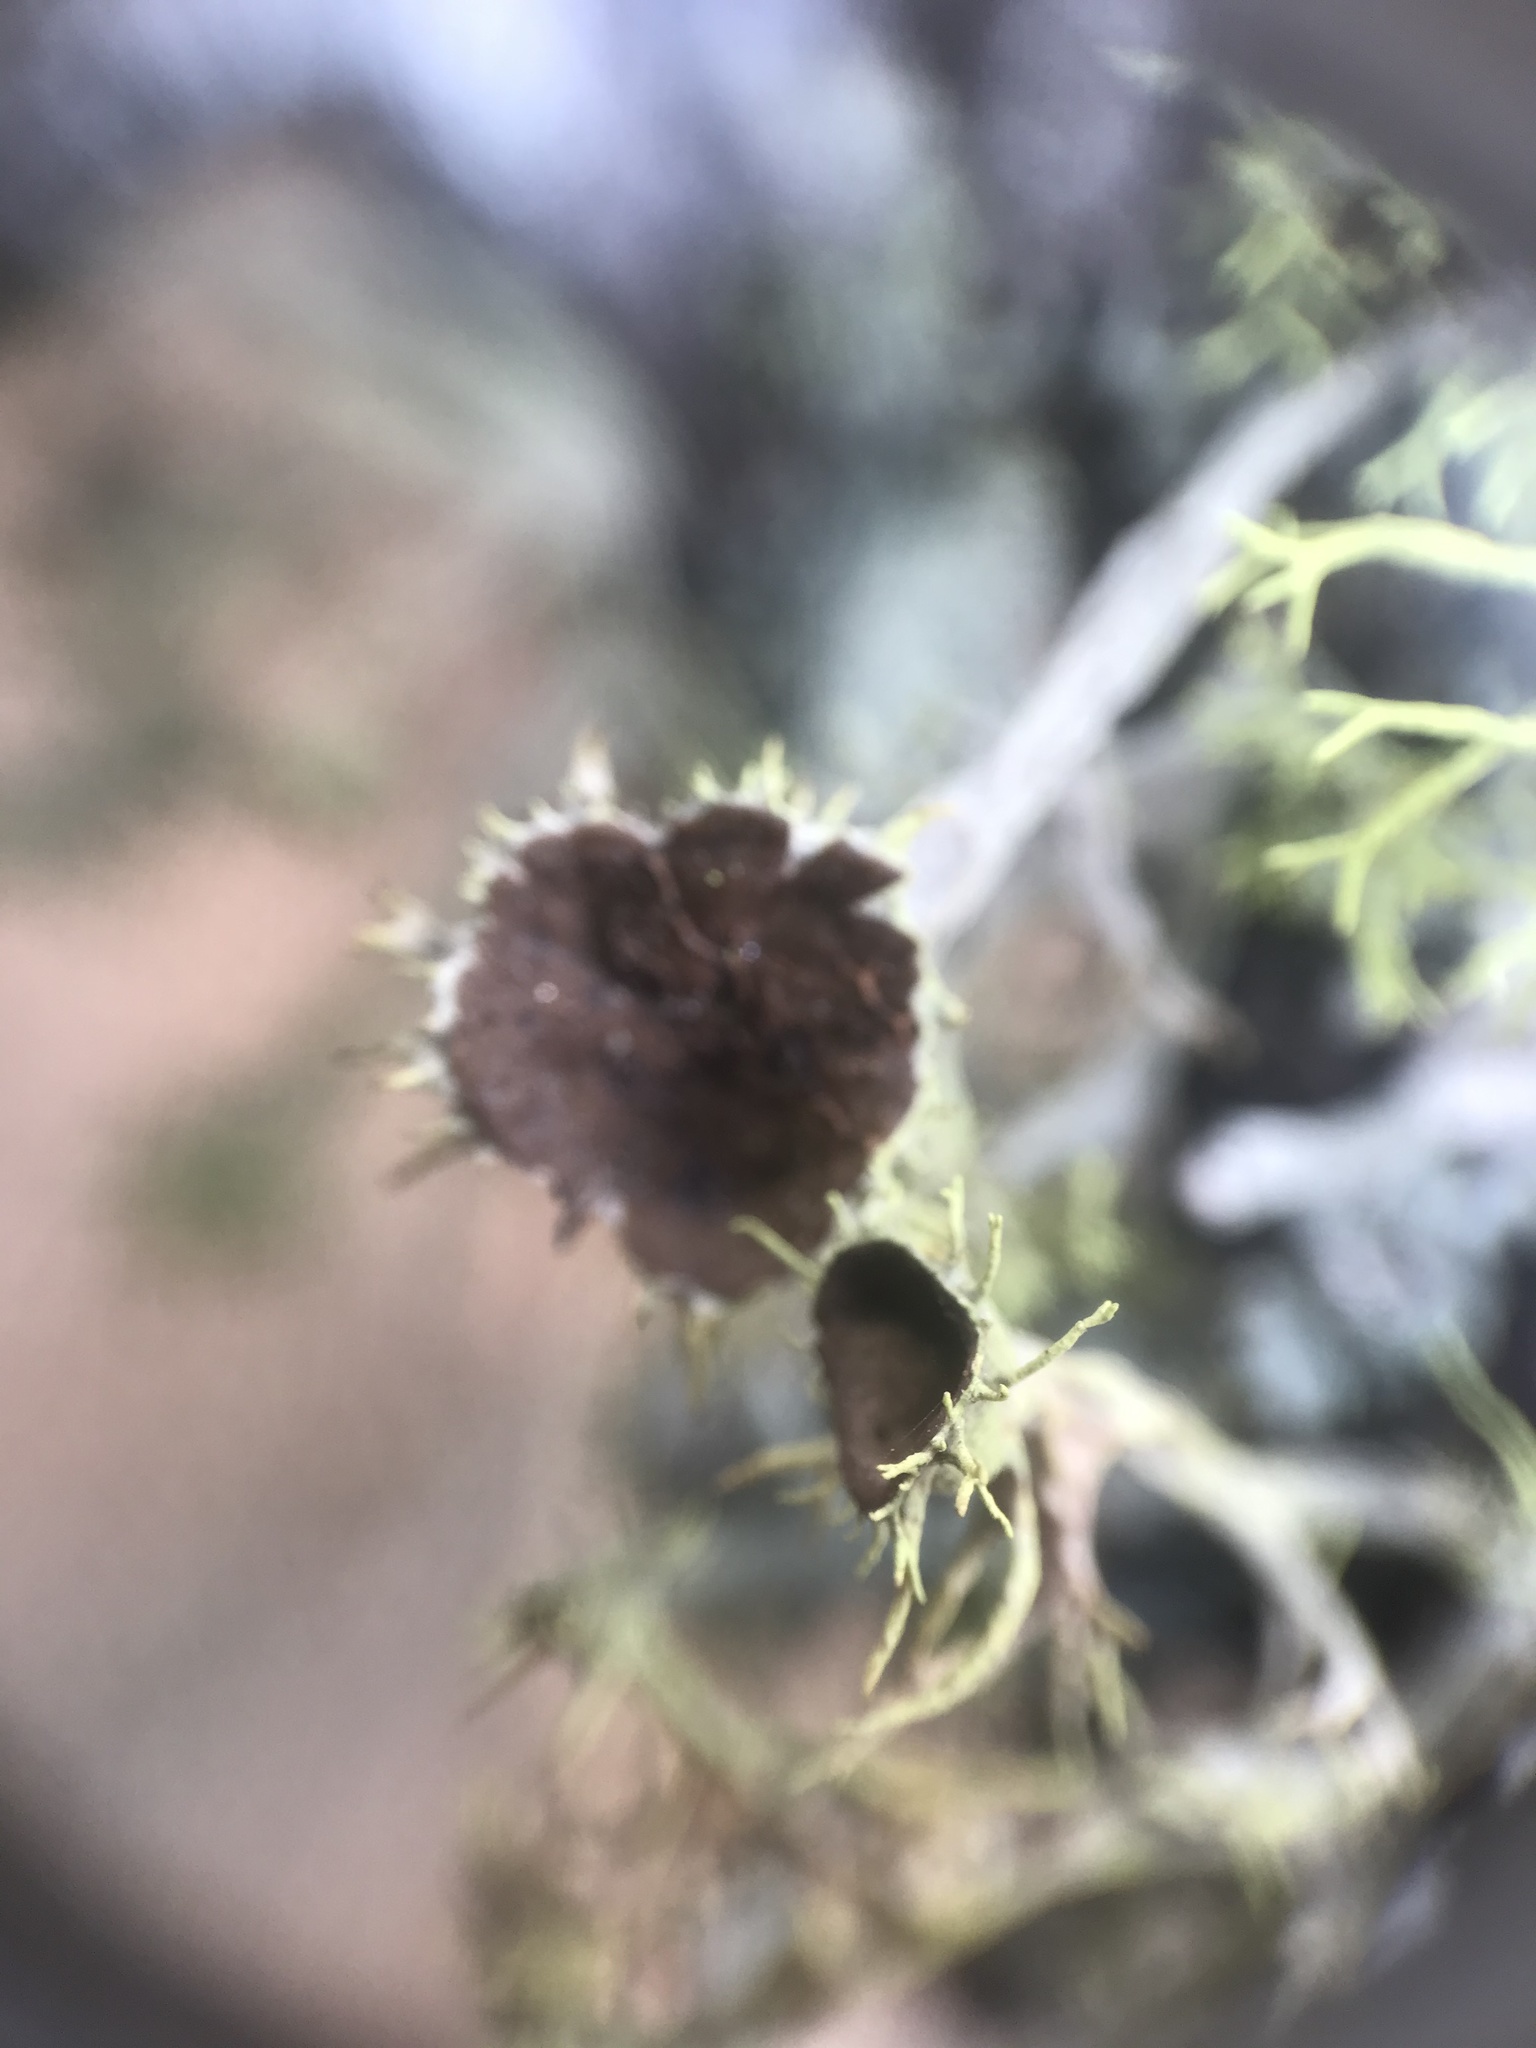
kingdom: Fungi
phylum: Ascomycota
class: Lecanoromycetes
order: Lecanorales
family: Parmeliaceae
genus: Letharia
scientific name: Letharia columbiana
